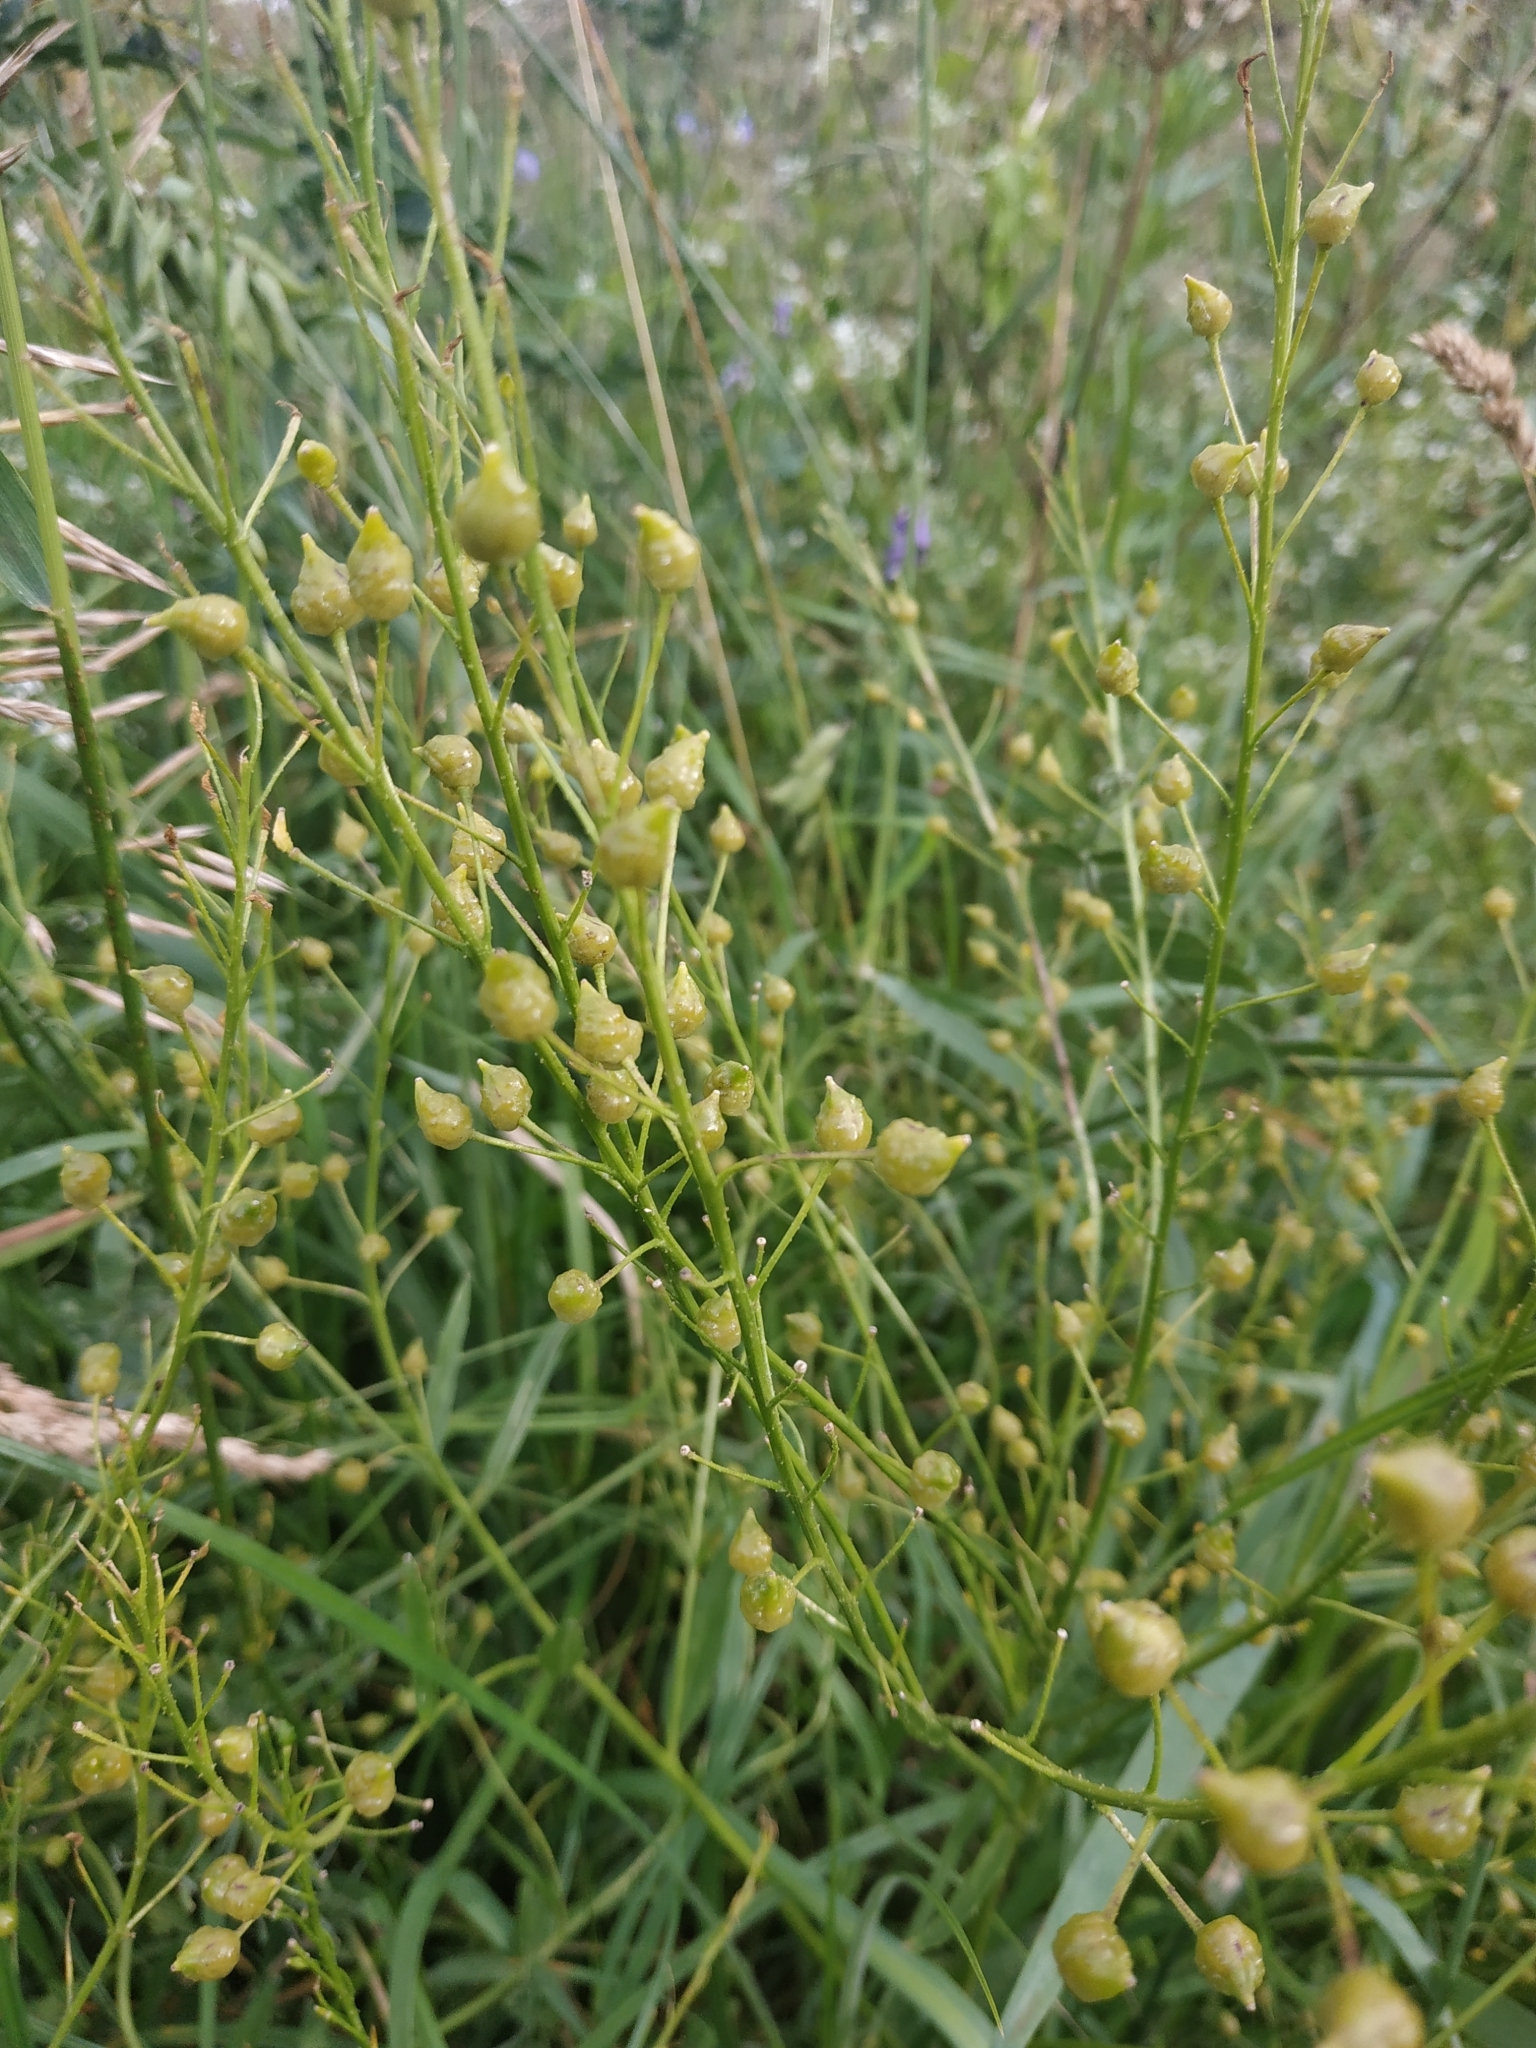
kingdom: Plantae
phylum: Tracheophyta
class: Magnoliopsida
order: Brassicales
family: Brassicaceae
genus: Bunias
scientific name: Bunias orientalis
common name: Warty-cabbage
